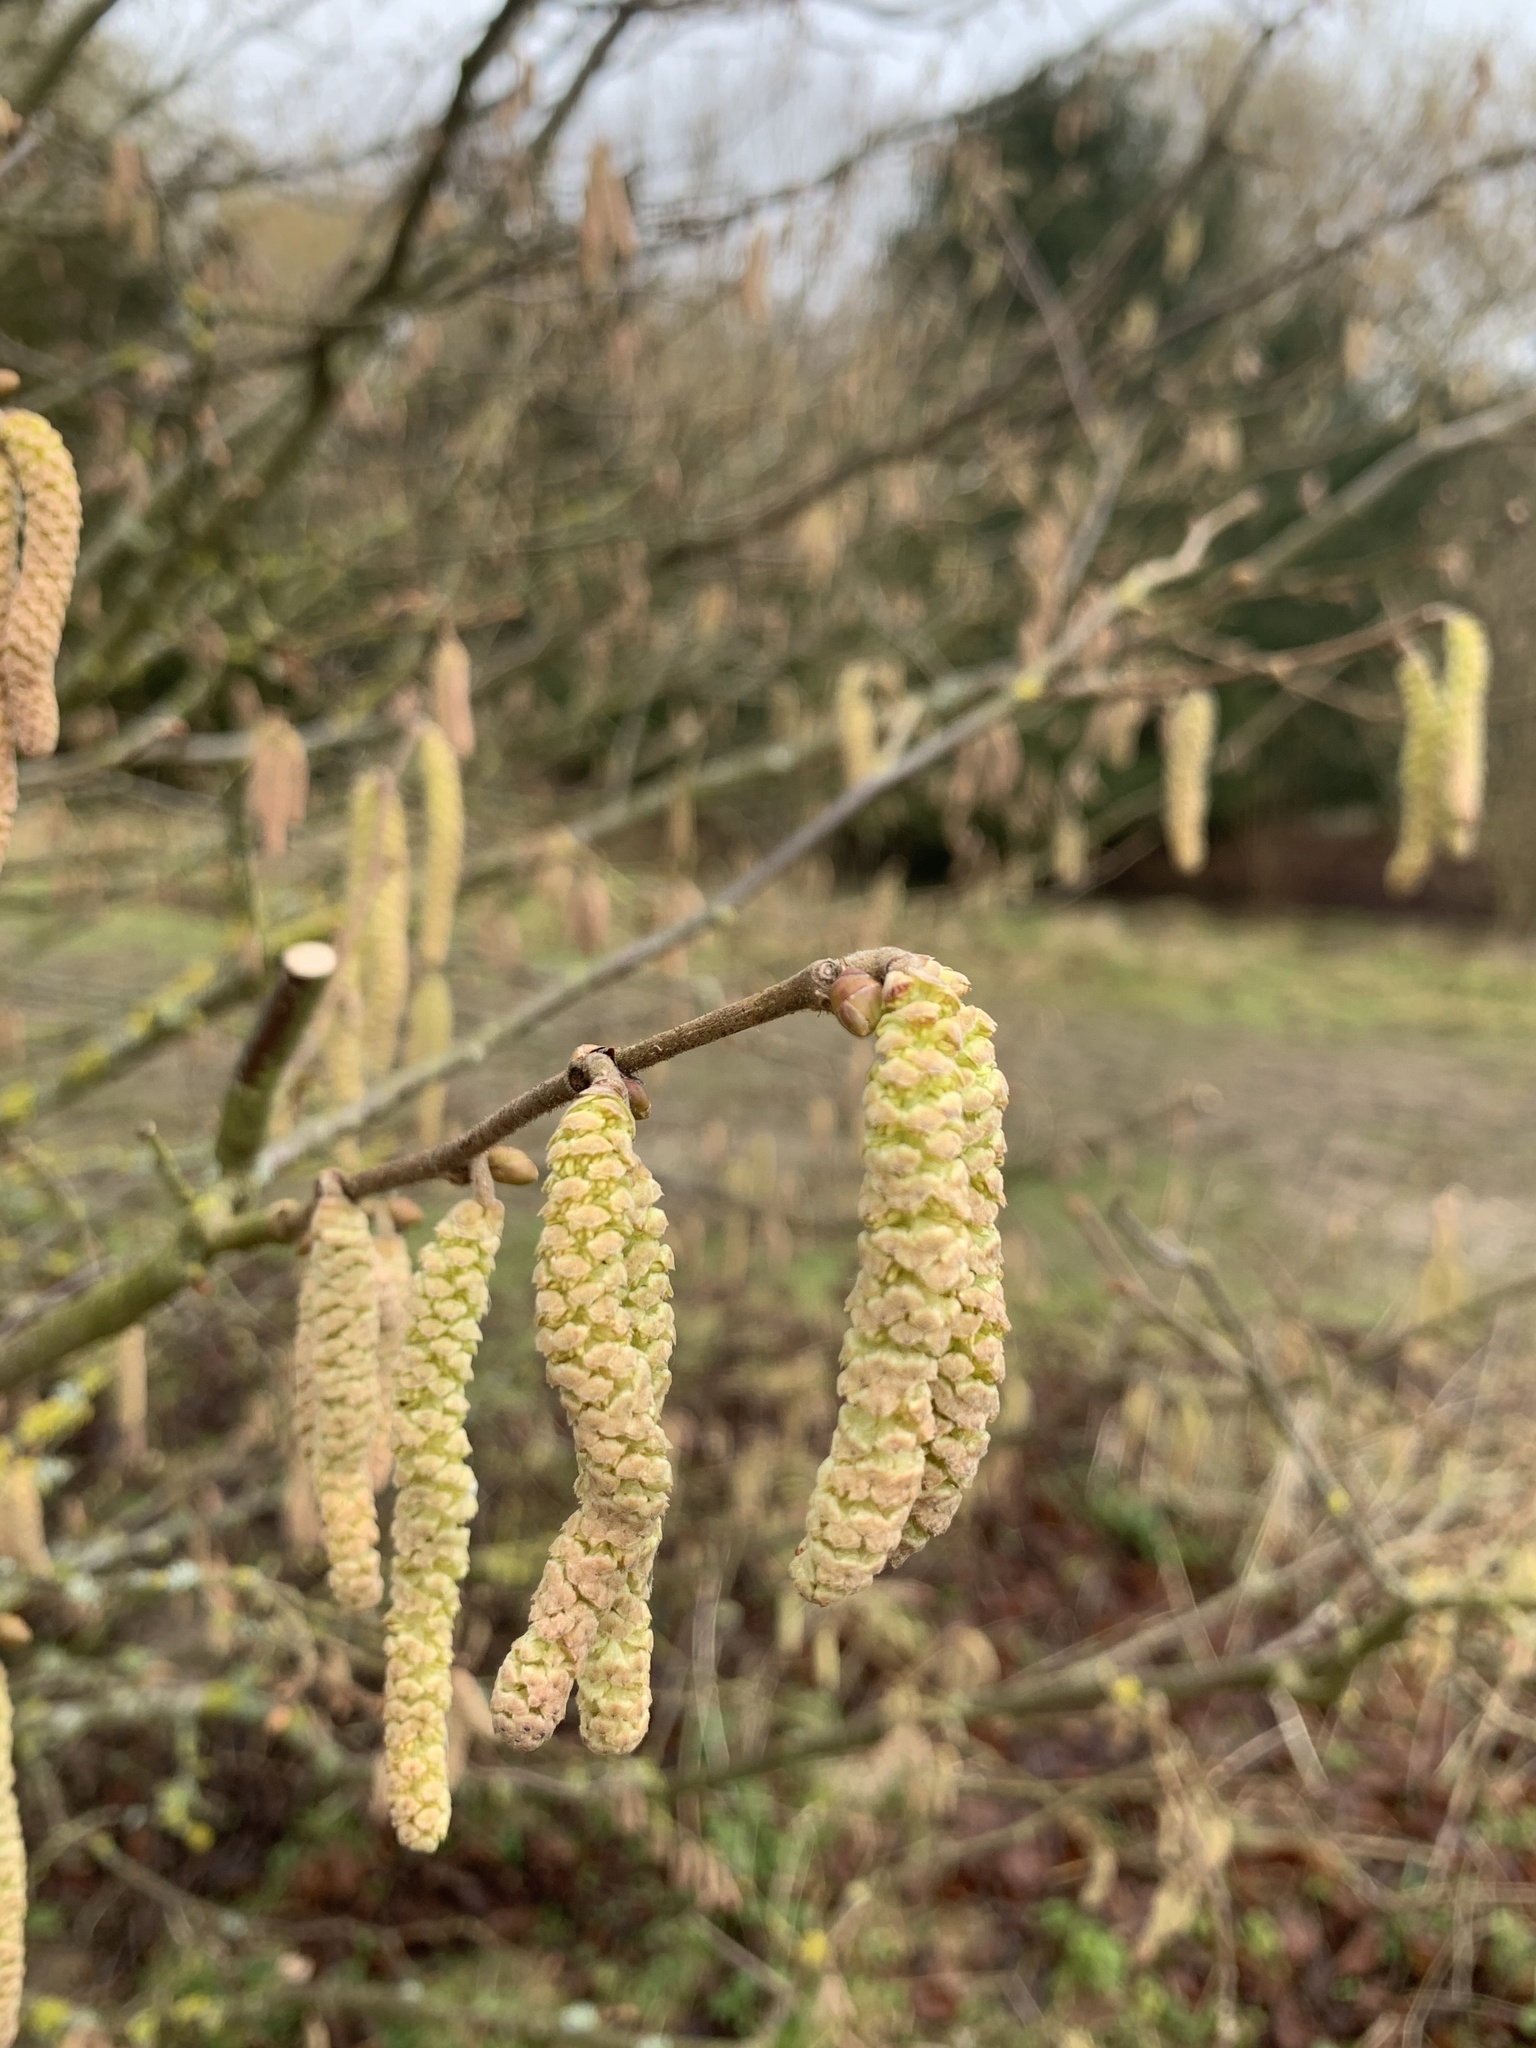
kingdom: Plantae
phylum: Tracheophyta
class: Magnoliopsida
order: Fagales
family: Betulaceae
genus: Corylus
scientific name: Corylus avellana
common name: European hazel
